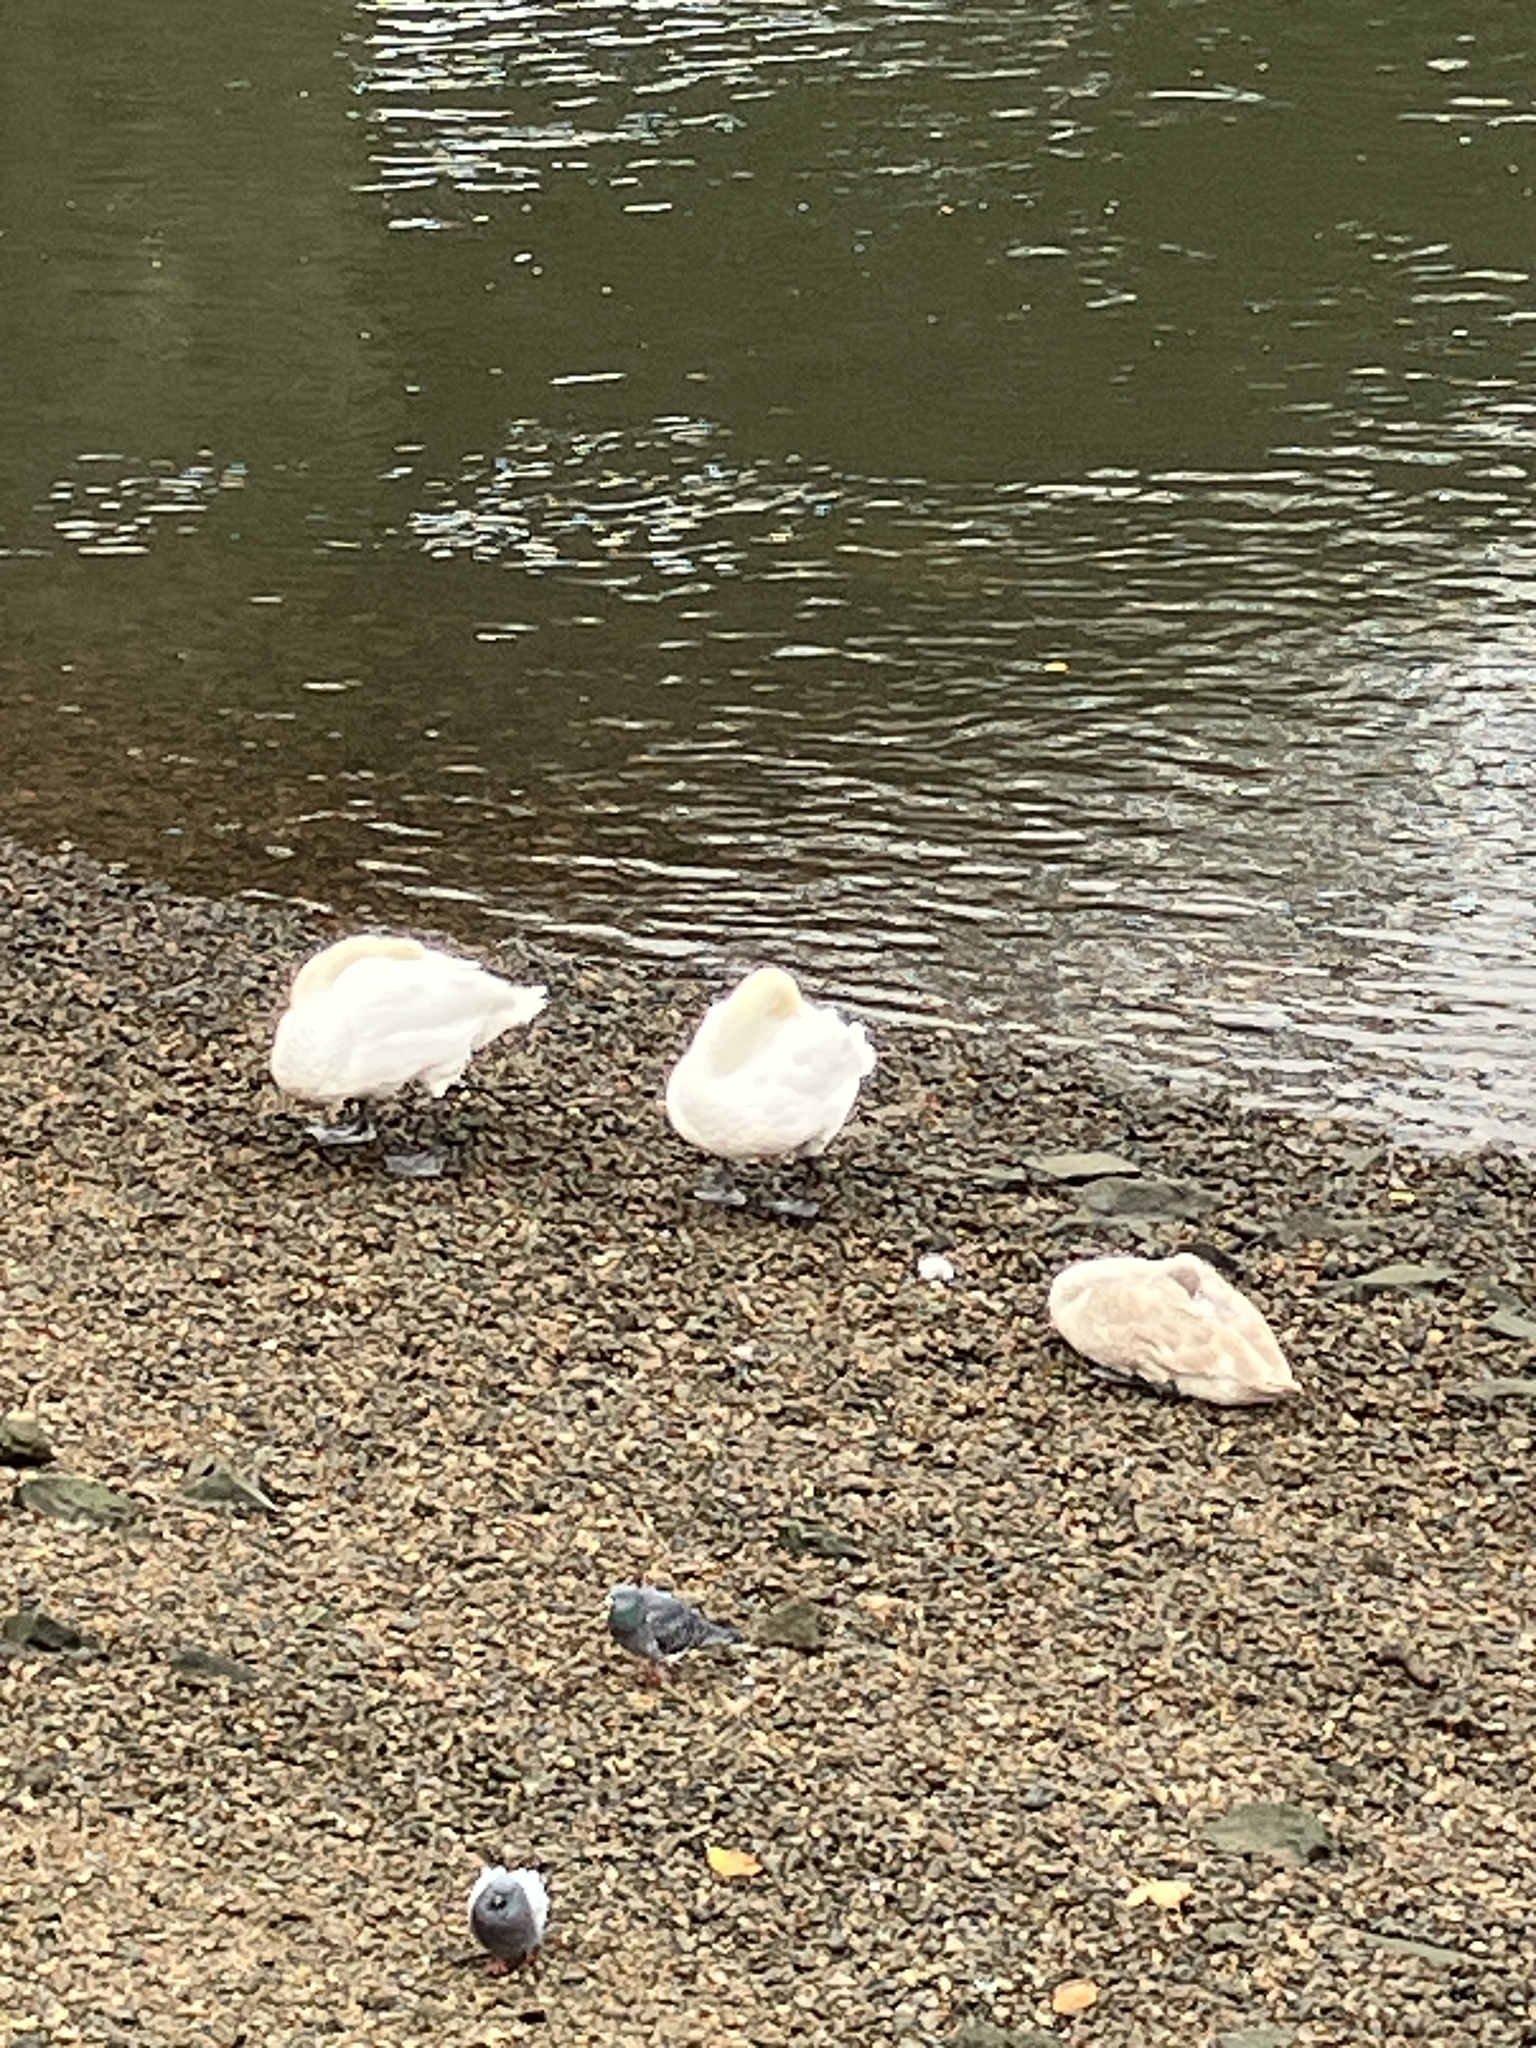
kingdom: Animalia
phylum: Chordata
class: Aves
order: Anseriformes
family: Anatidae
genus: Cygnus
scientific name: Cygnus olor
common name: Mute swan
